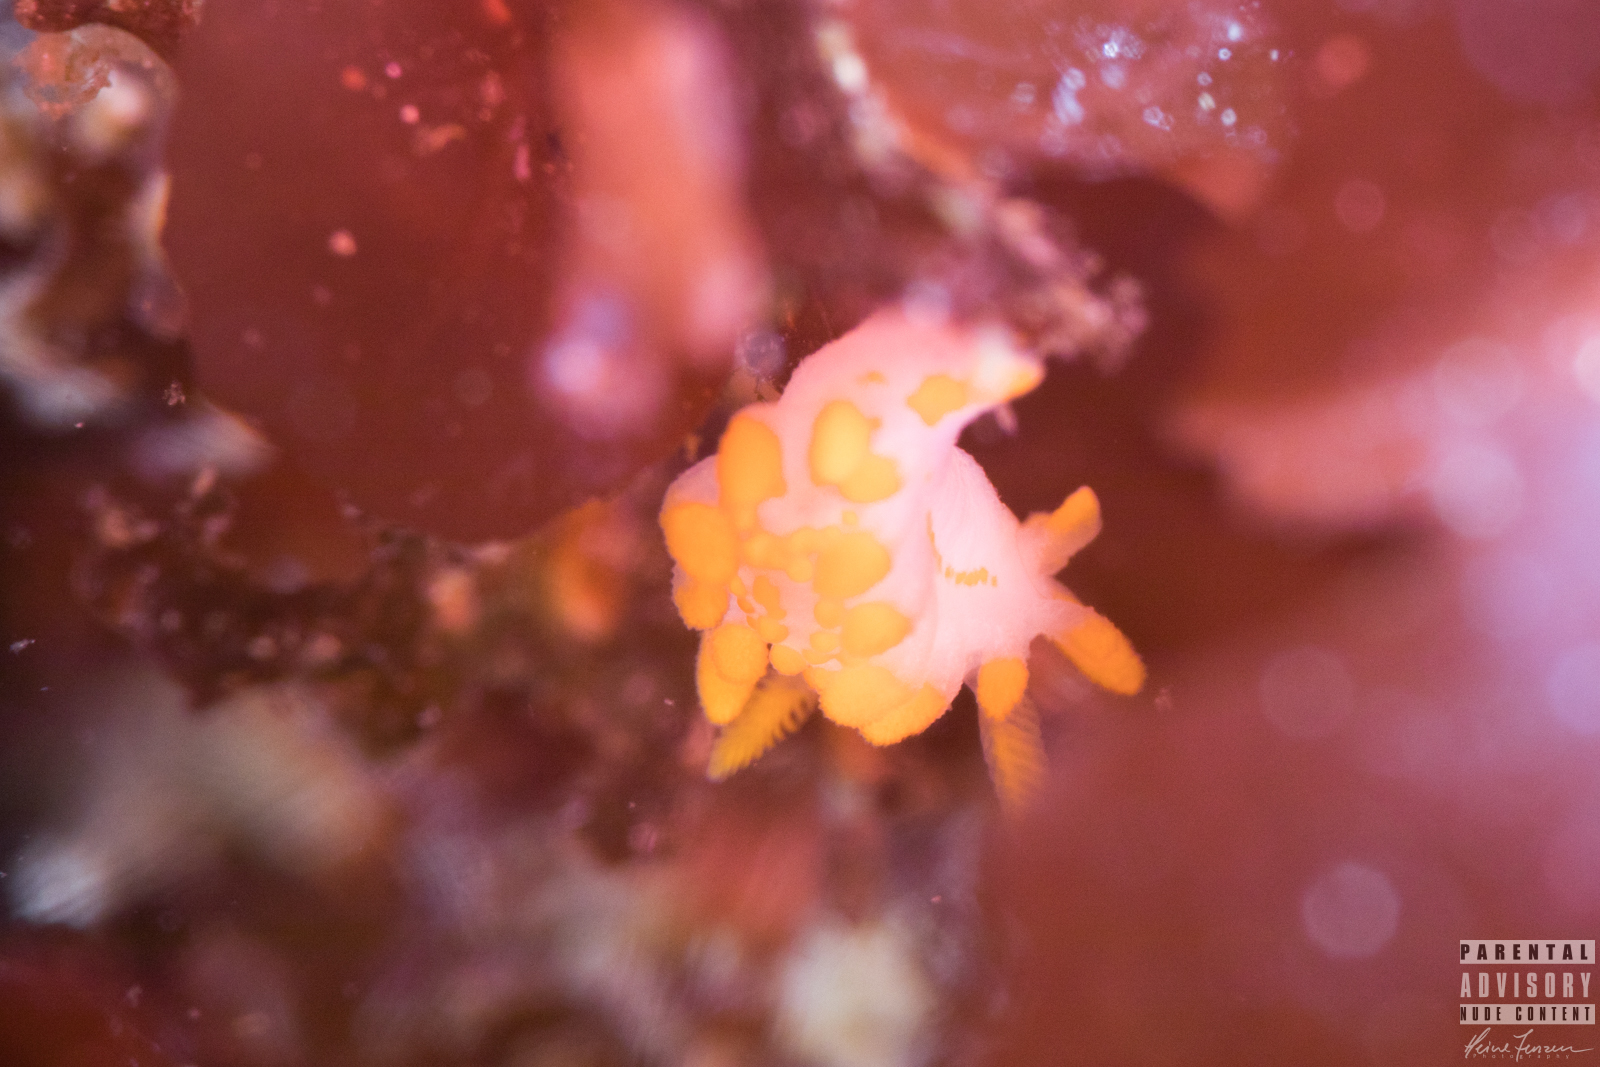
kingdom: Animalia
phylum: Mollusca
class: Gastropoda
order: Nudibranchia
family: Polyceridae
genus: Limacia
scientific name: Limacia clavigera
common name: Orange-clubbed sea slug
